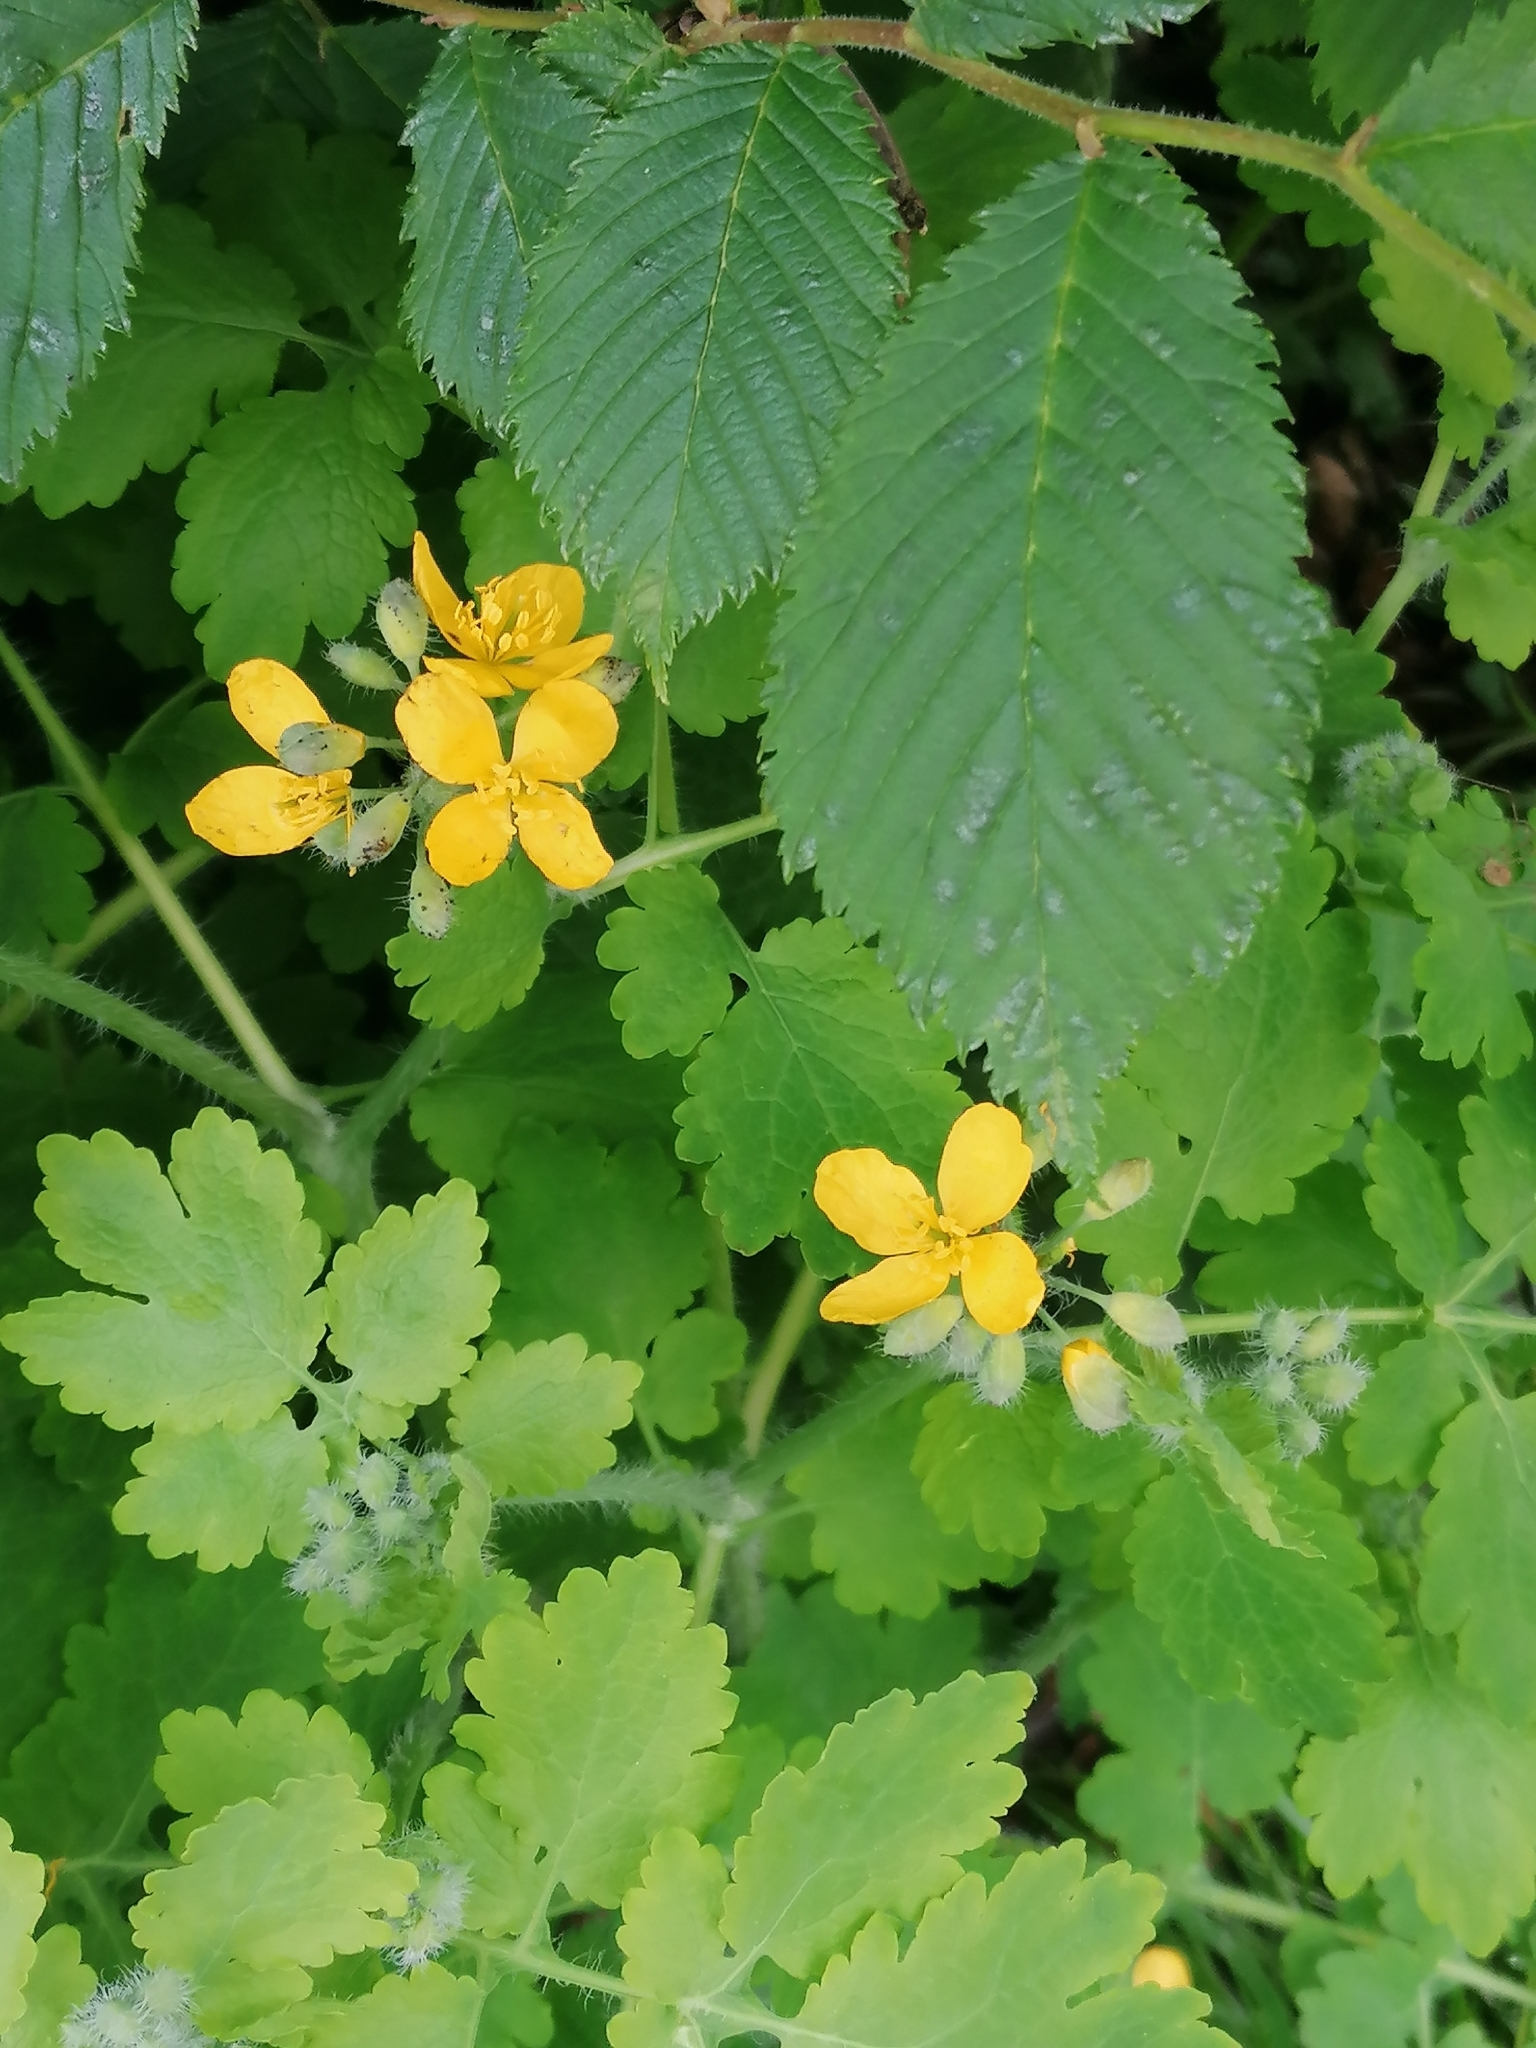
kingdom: Plantae
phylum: Tracheophyta
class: Magnoliopsida
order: Ranunculales
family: Papaveraceae
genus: Chelidonium
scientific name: Chelidonium majus
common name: Greater celandine
